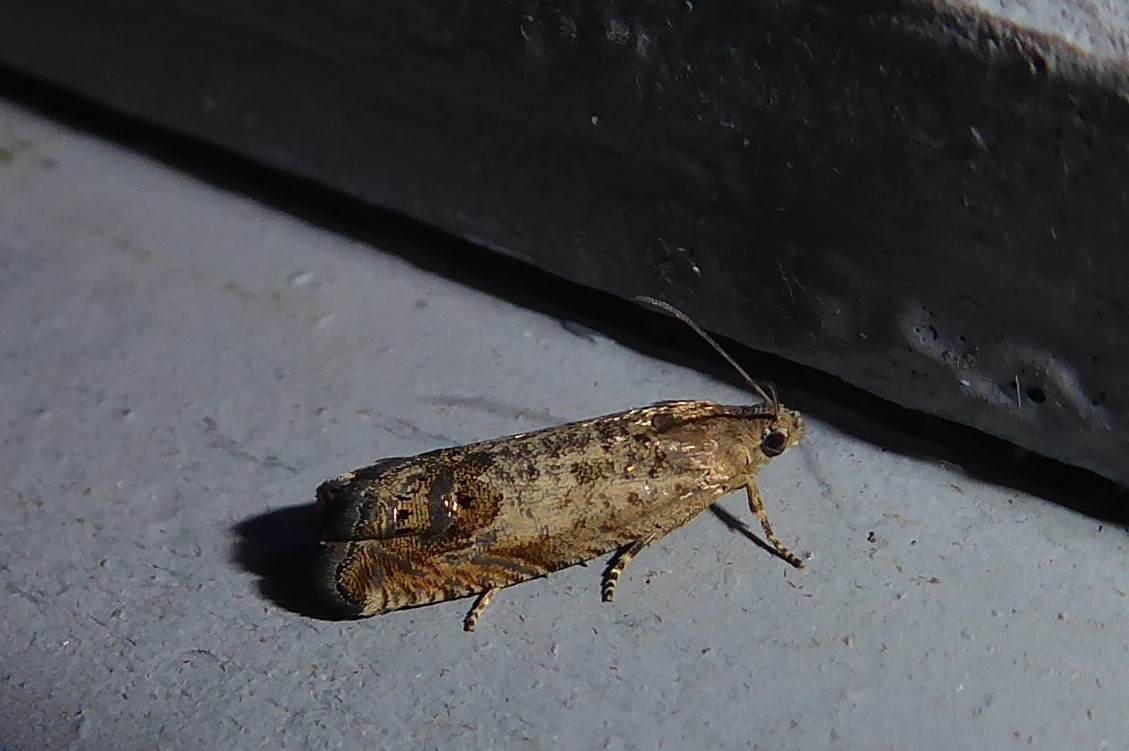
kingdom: Animalia
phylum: Arthropoda
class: Insecta
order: Lepidoptera
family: Tortricidae
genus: Cydia
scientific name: Cydia succedana
